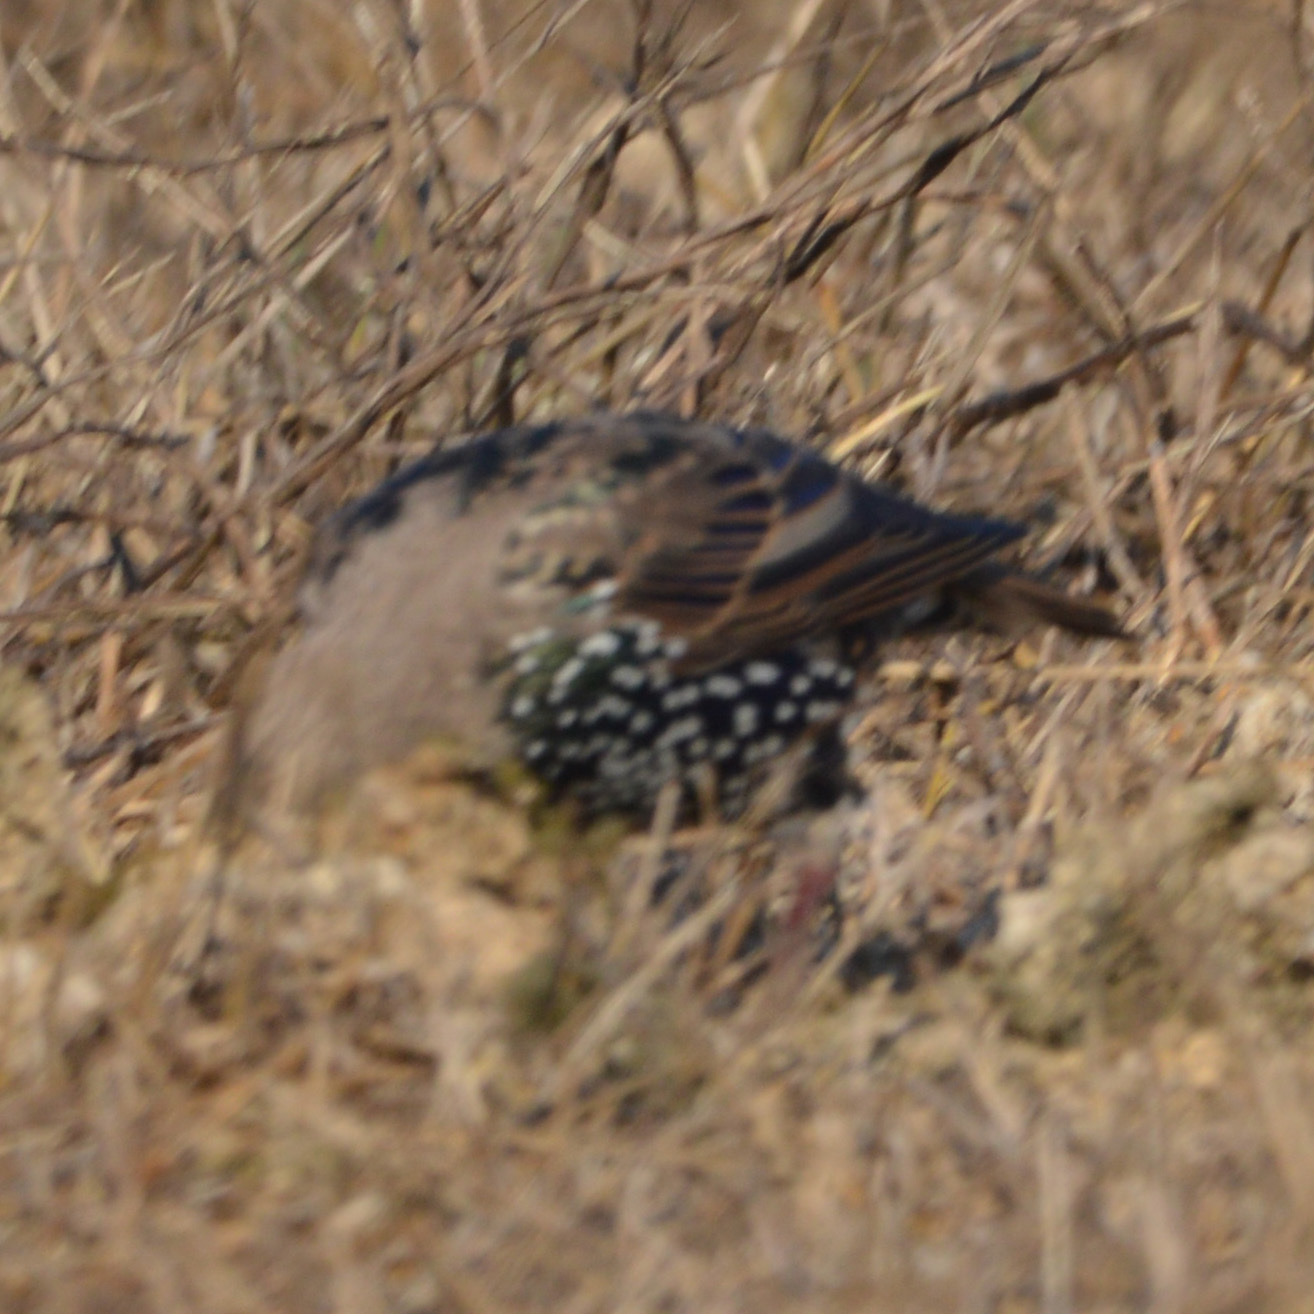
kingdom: Animalia
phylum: Chordata
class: Aves
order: Passeriformes
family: Sturnidae
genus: Sturnus
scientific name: Sturnus vulgaris
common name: Common starling
